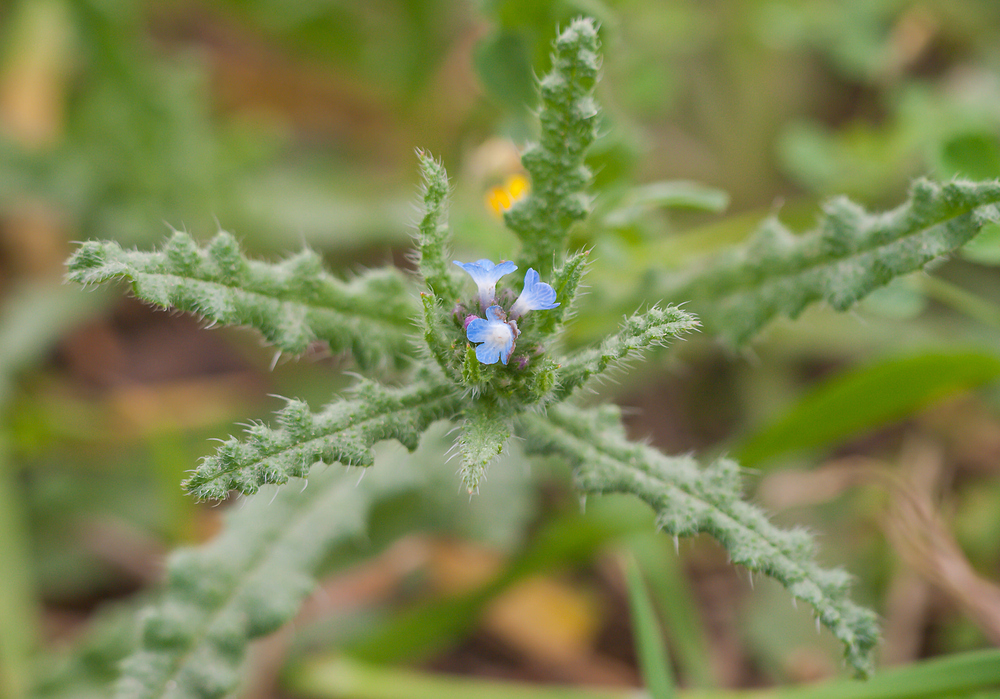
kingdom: Plantae
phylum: Tracheophyta
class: Magnoliopsida
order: Boraginales
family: Boraginaceae
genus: Lycopsis
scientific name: Lycopsis arvensis
